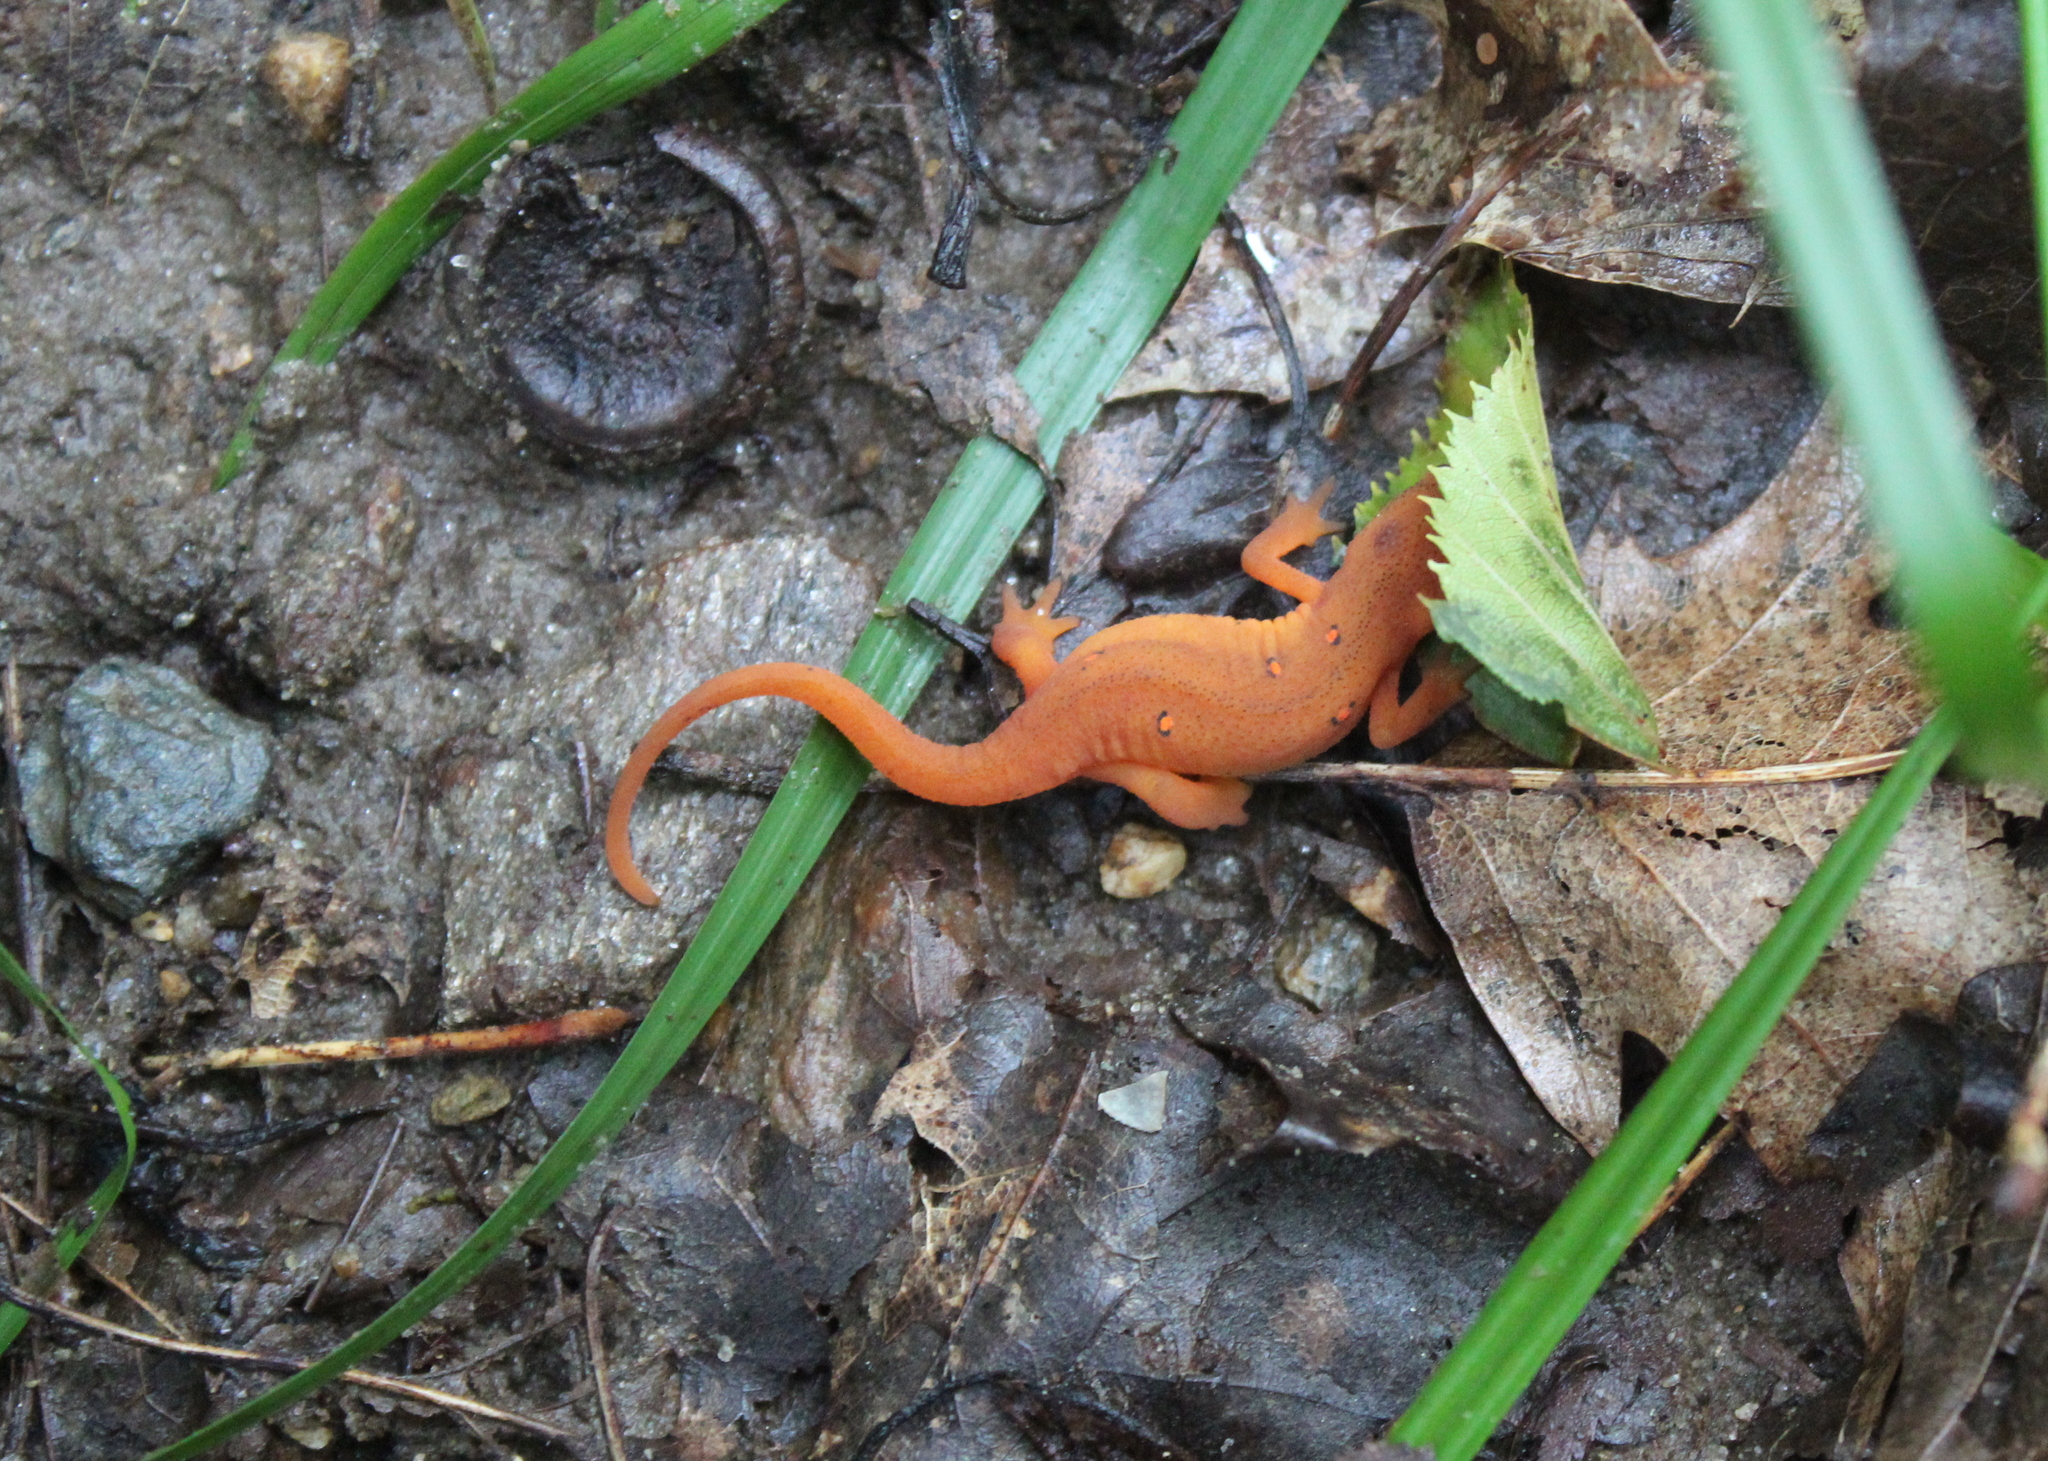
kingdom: Animalia
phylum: Chordata
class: Amphibia
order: Caudata
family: Salamandridae
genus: Notophthalmus
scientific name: Notophthalmus viridescens
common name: Eastern newt
